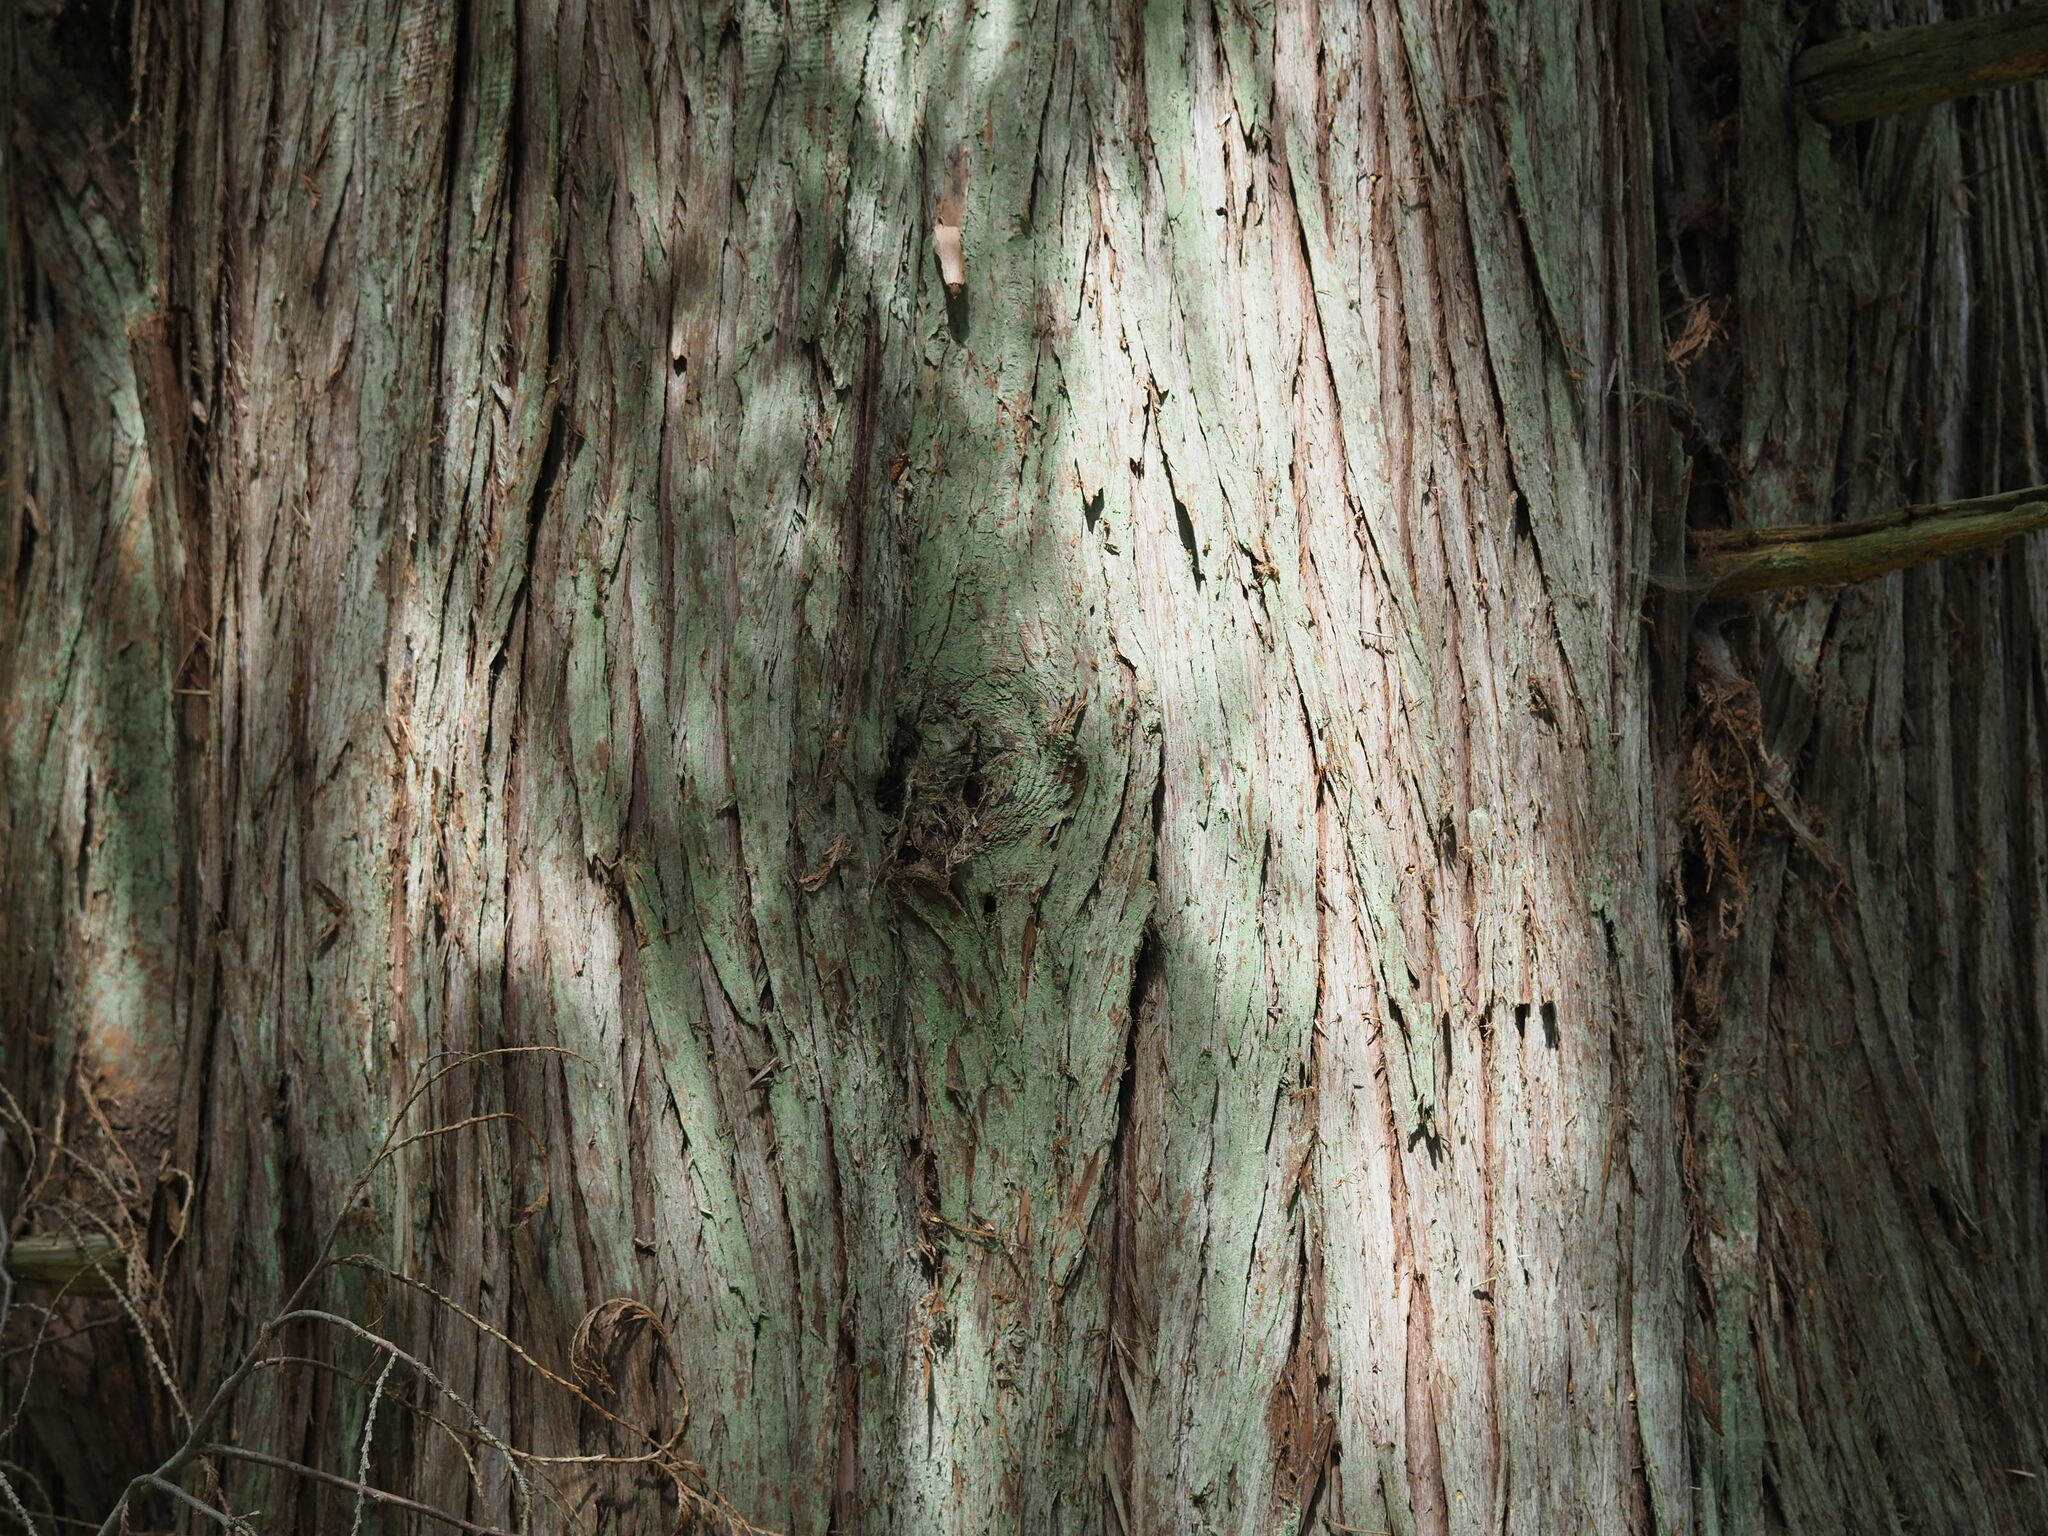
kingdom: Plantae
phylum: Tracheophyta
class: Pinopsida
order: Pinales
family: Cupressaceae
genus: Thuja
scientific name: Thuja plicata
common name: Western red-cedar
